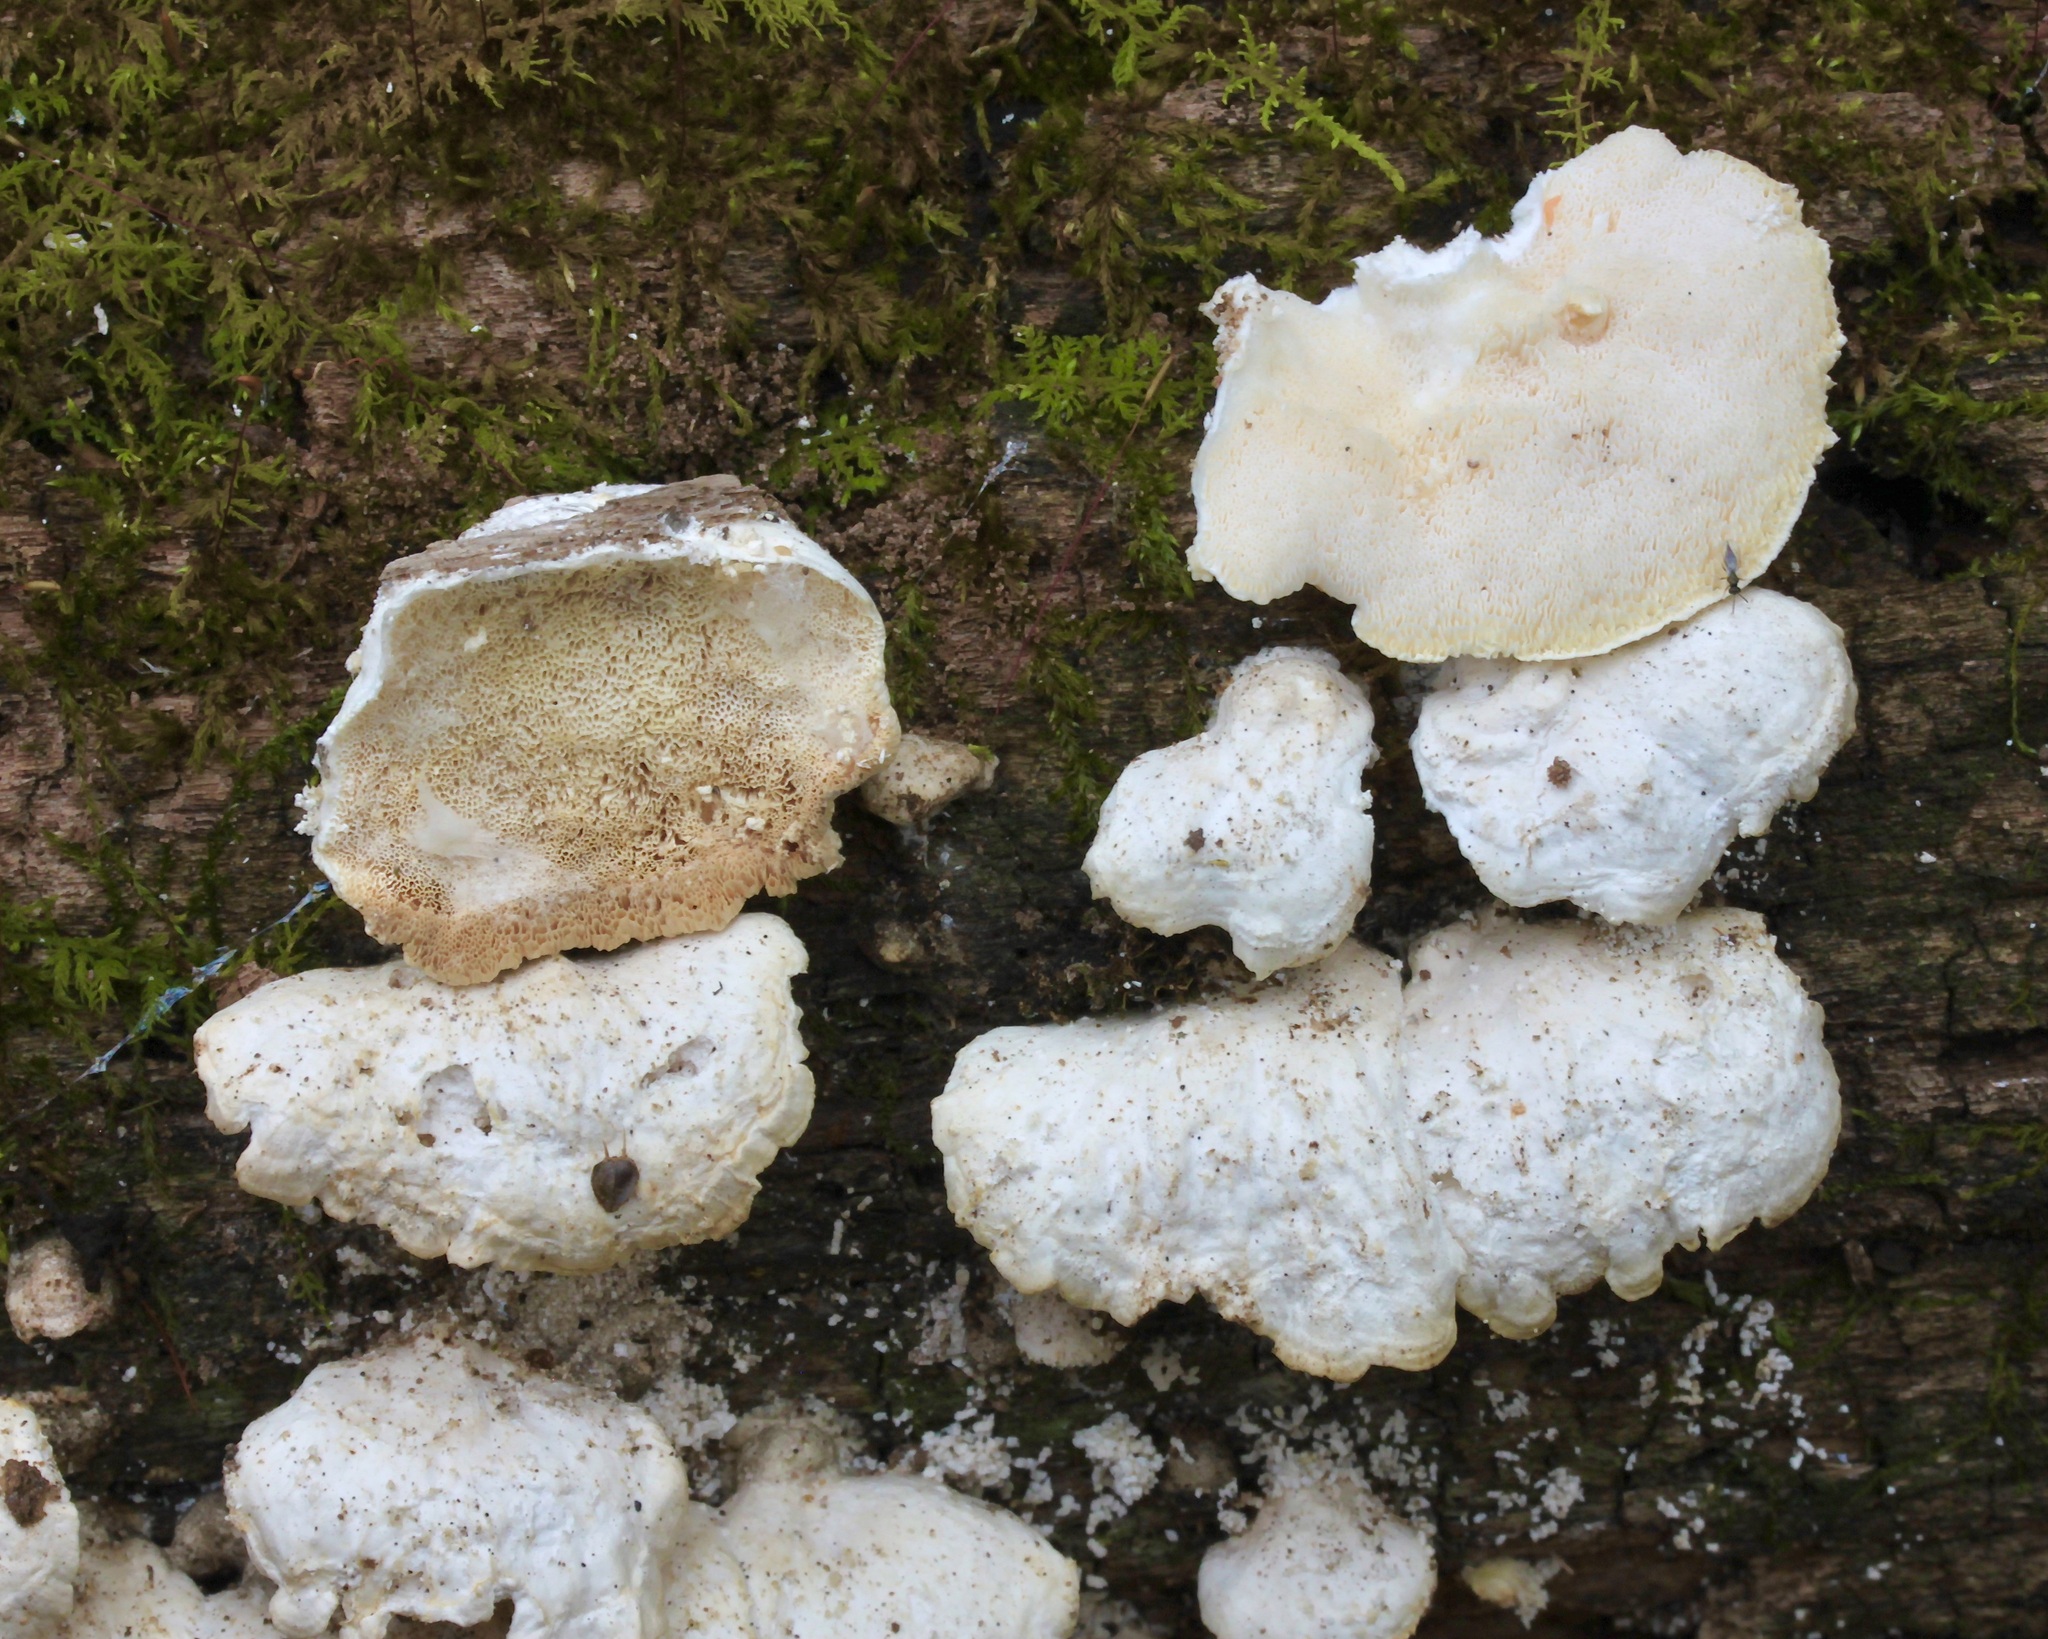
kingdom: Fungi
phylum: Basidiomycota
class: Agaricomycetes
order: Polyporales
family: Polyporaceae
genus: Trametes
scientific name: Trametes pubescens
